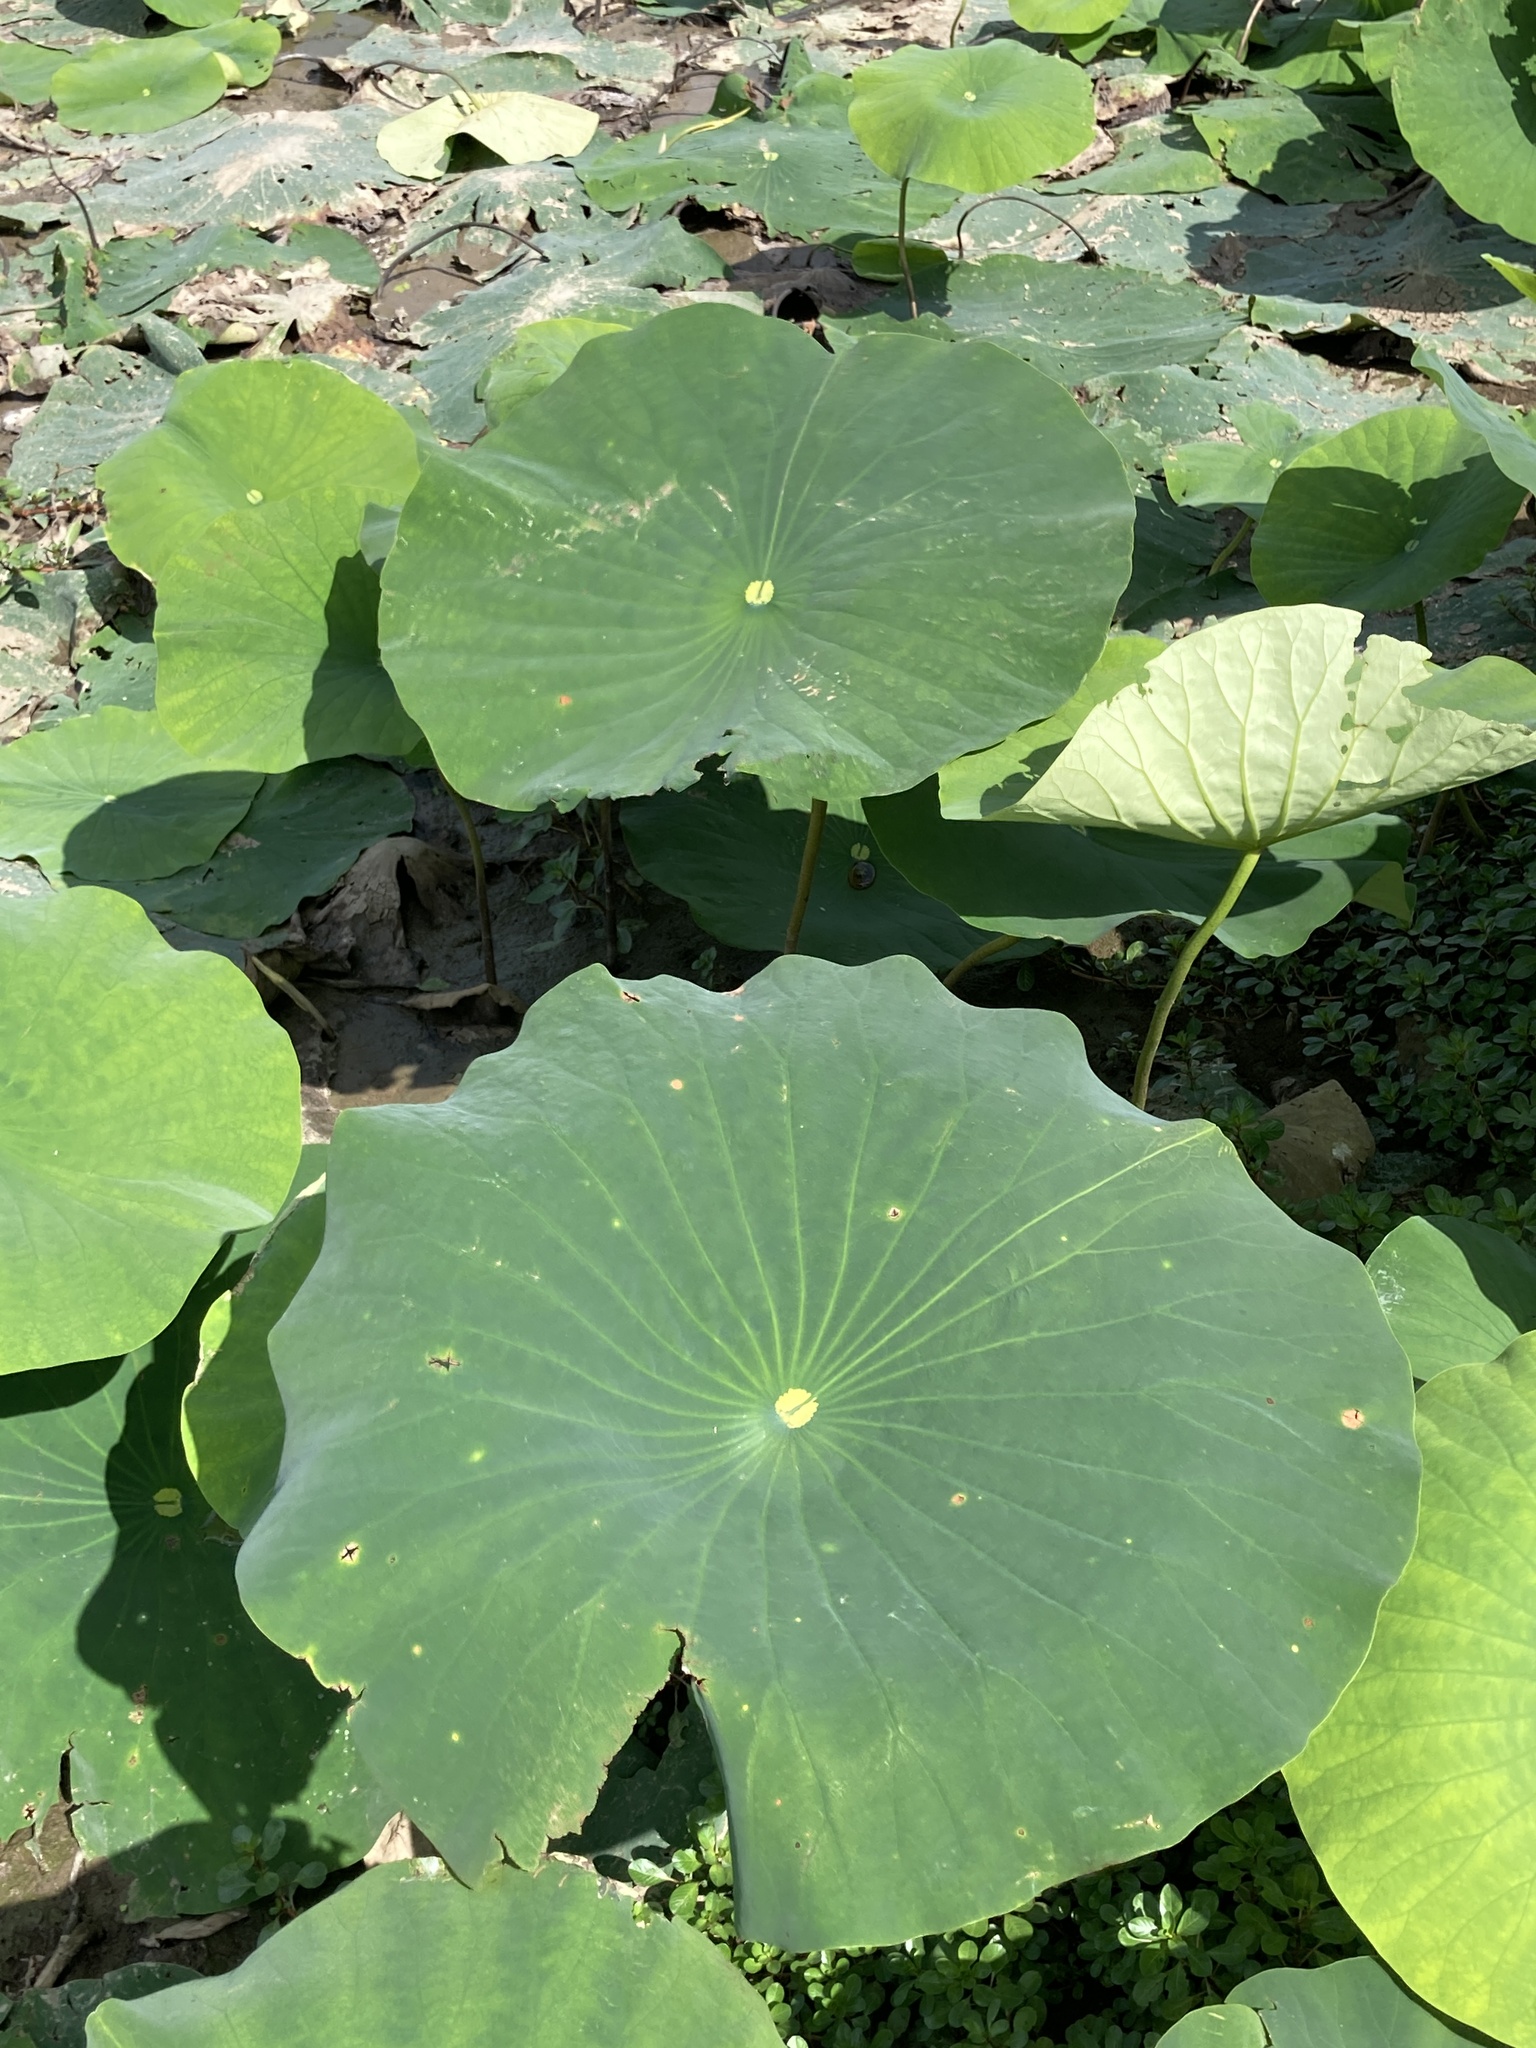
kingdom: Plantae
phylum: Tracheophyta
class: Magnoliopsida
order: Proteales
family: Nelumbonaceae
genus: Nelumbo
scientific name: Nelumbo lutea
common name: American lotus
